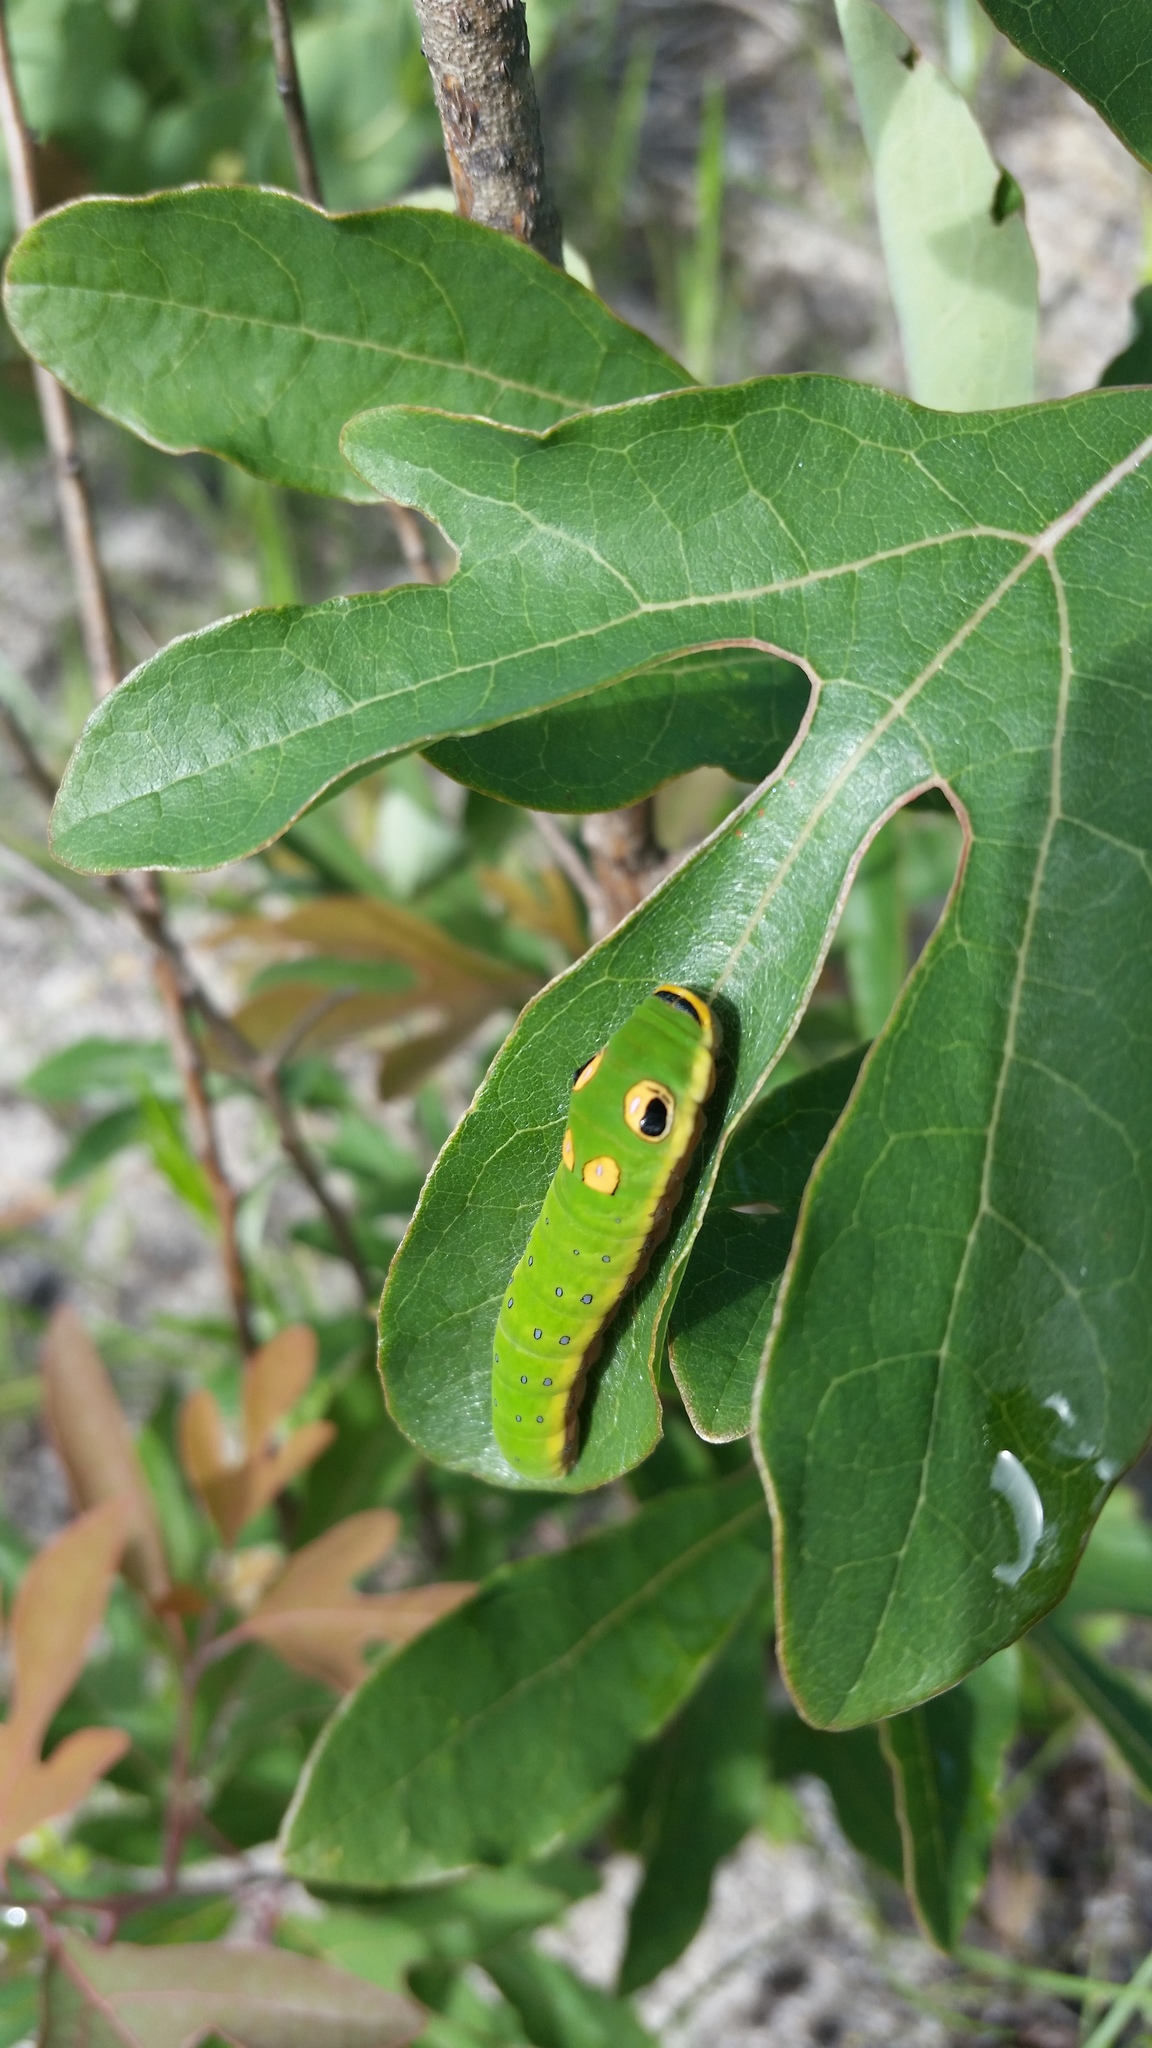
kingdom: Animalia
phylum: Arthropoda
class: Insecta
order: Lepidoptera
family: Papilionidae
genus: Papilio
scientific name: Papilio troilus
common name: Spicebush swallowtail
